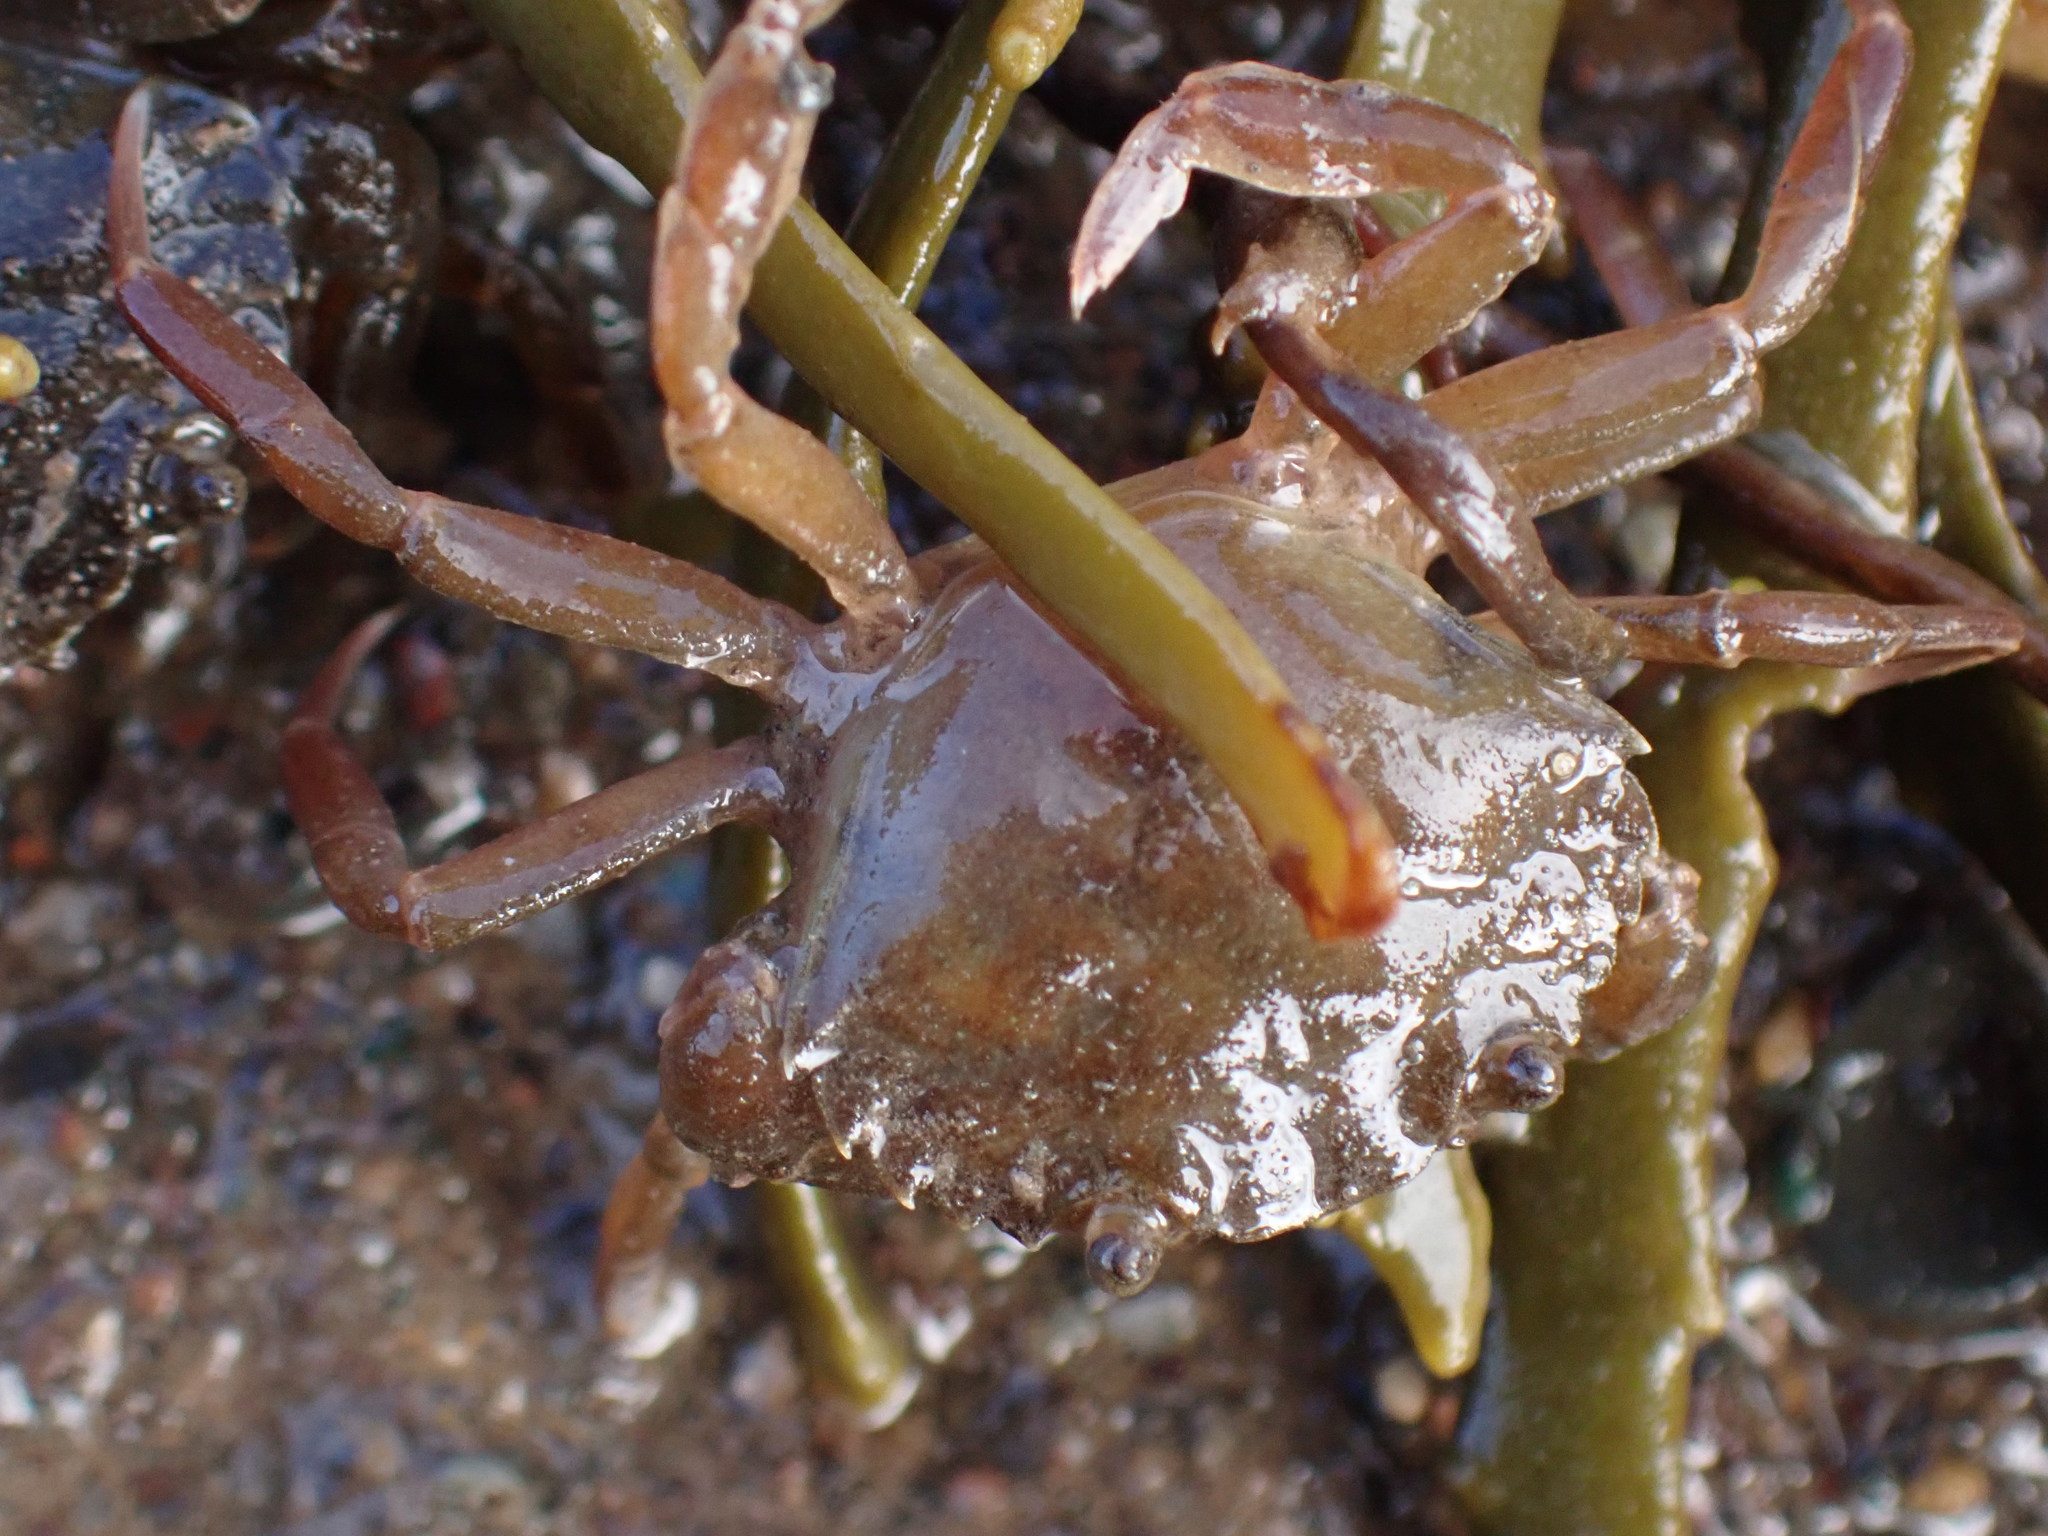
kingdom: Animalia
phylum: Arthropoda
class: Malacostraca
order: Decapoda
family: Carcinidae
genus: Carcinus
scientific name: Carcinus maenas
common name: European green crab
